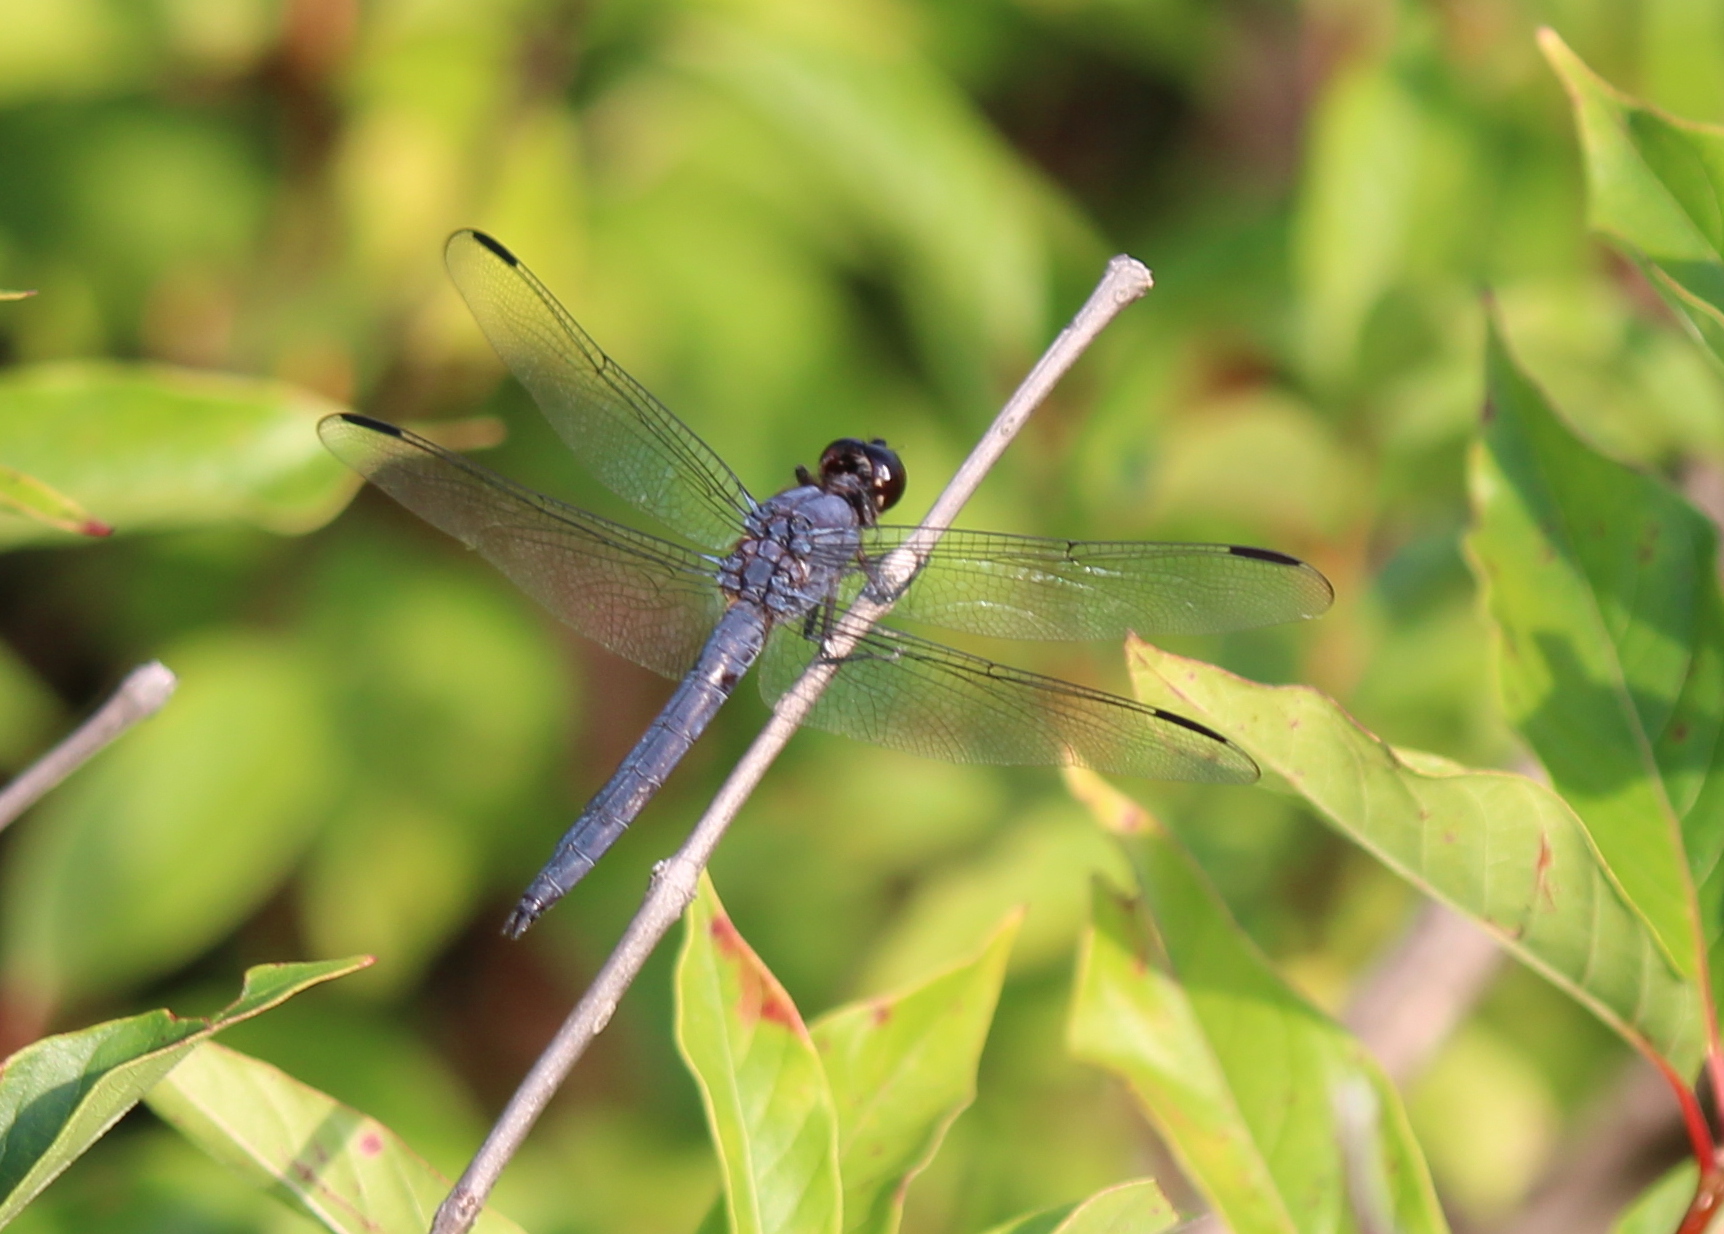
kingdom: Animalia
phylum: Arthropoda
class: Insecta
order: Odonata
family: Libellulidae
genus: Libellula
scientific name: Libellula incesta
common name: Slaty skimmer
